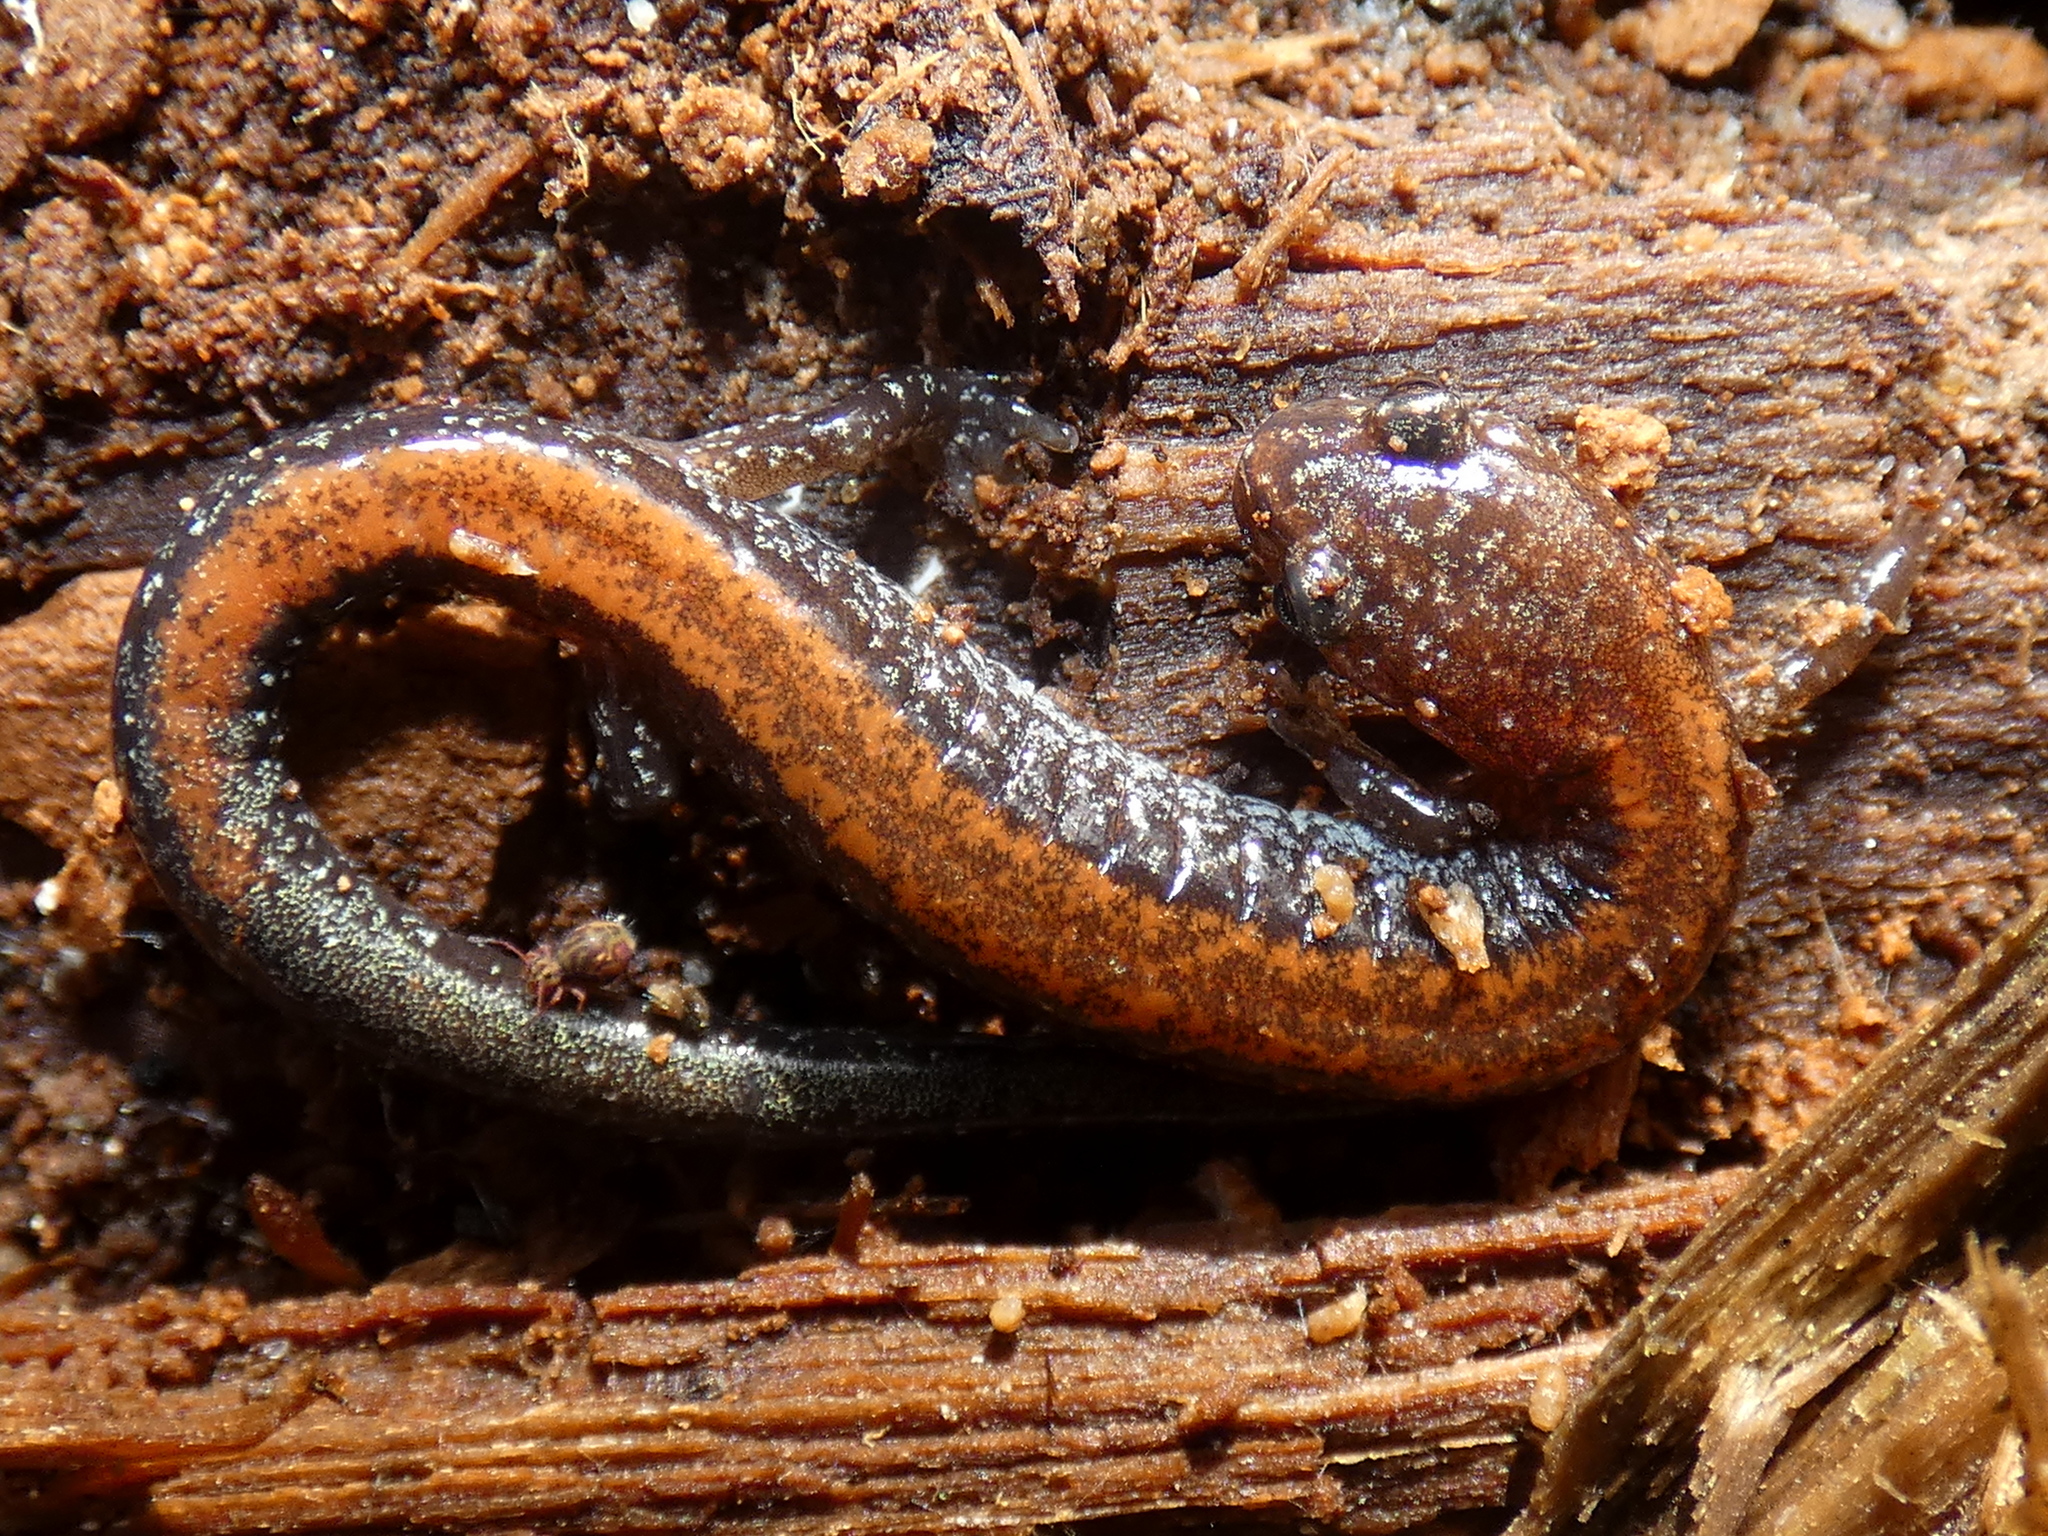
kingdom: Animalia
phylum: Chordata
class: Amphibia
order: Caudata
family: Plethodontidae
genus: Plethodon
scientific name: Plethodon cinereus
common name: Redback salamander
